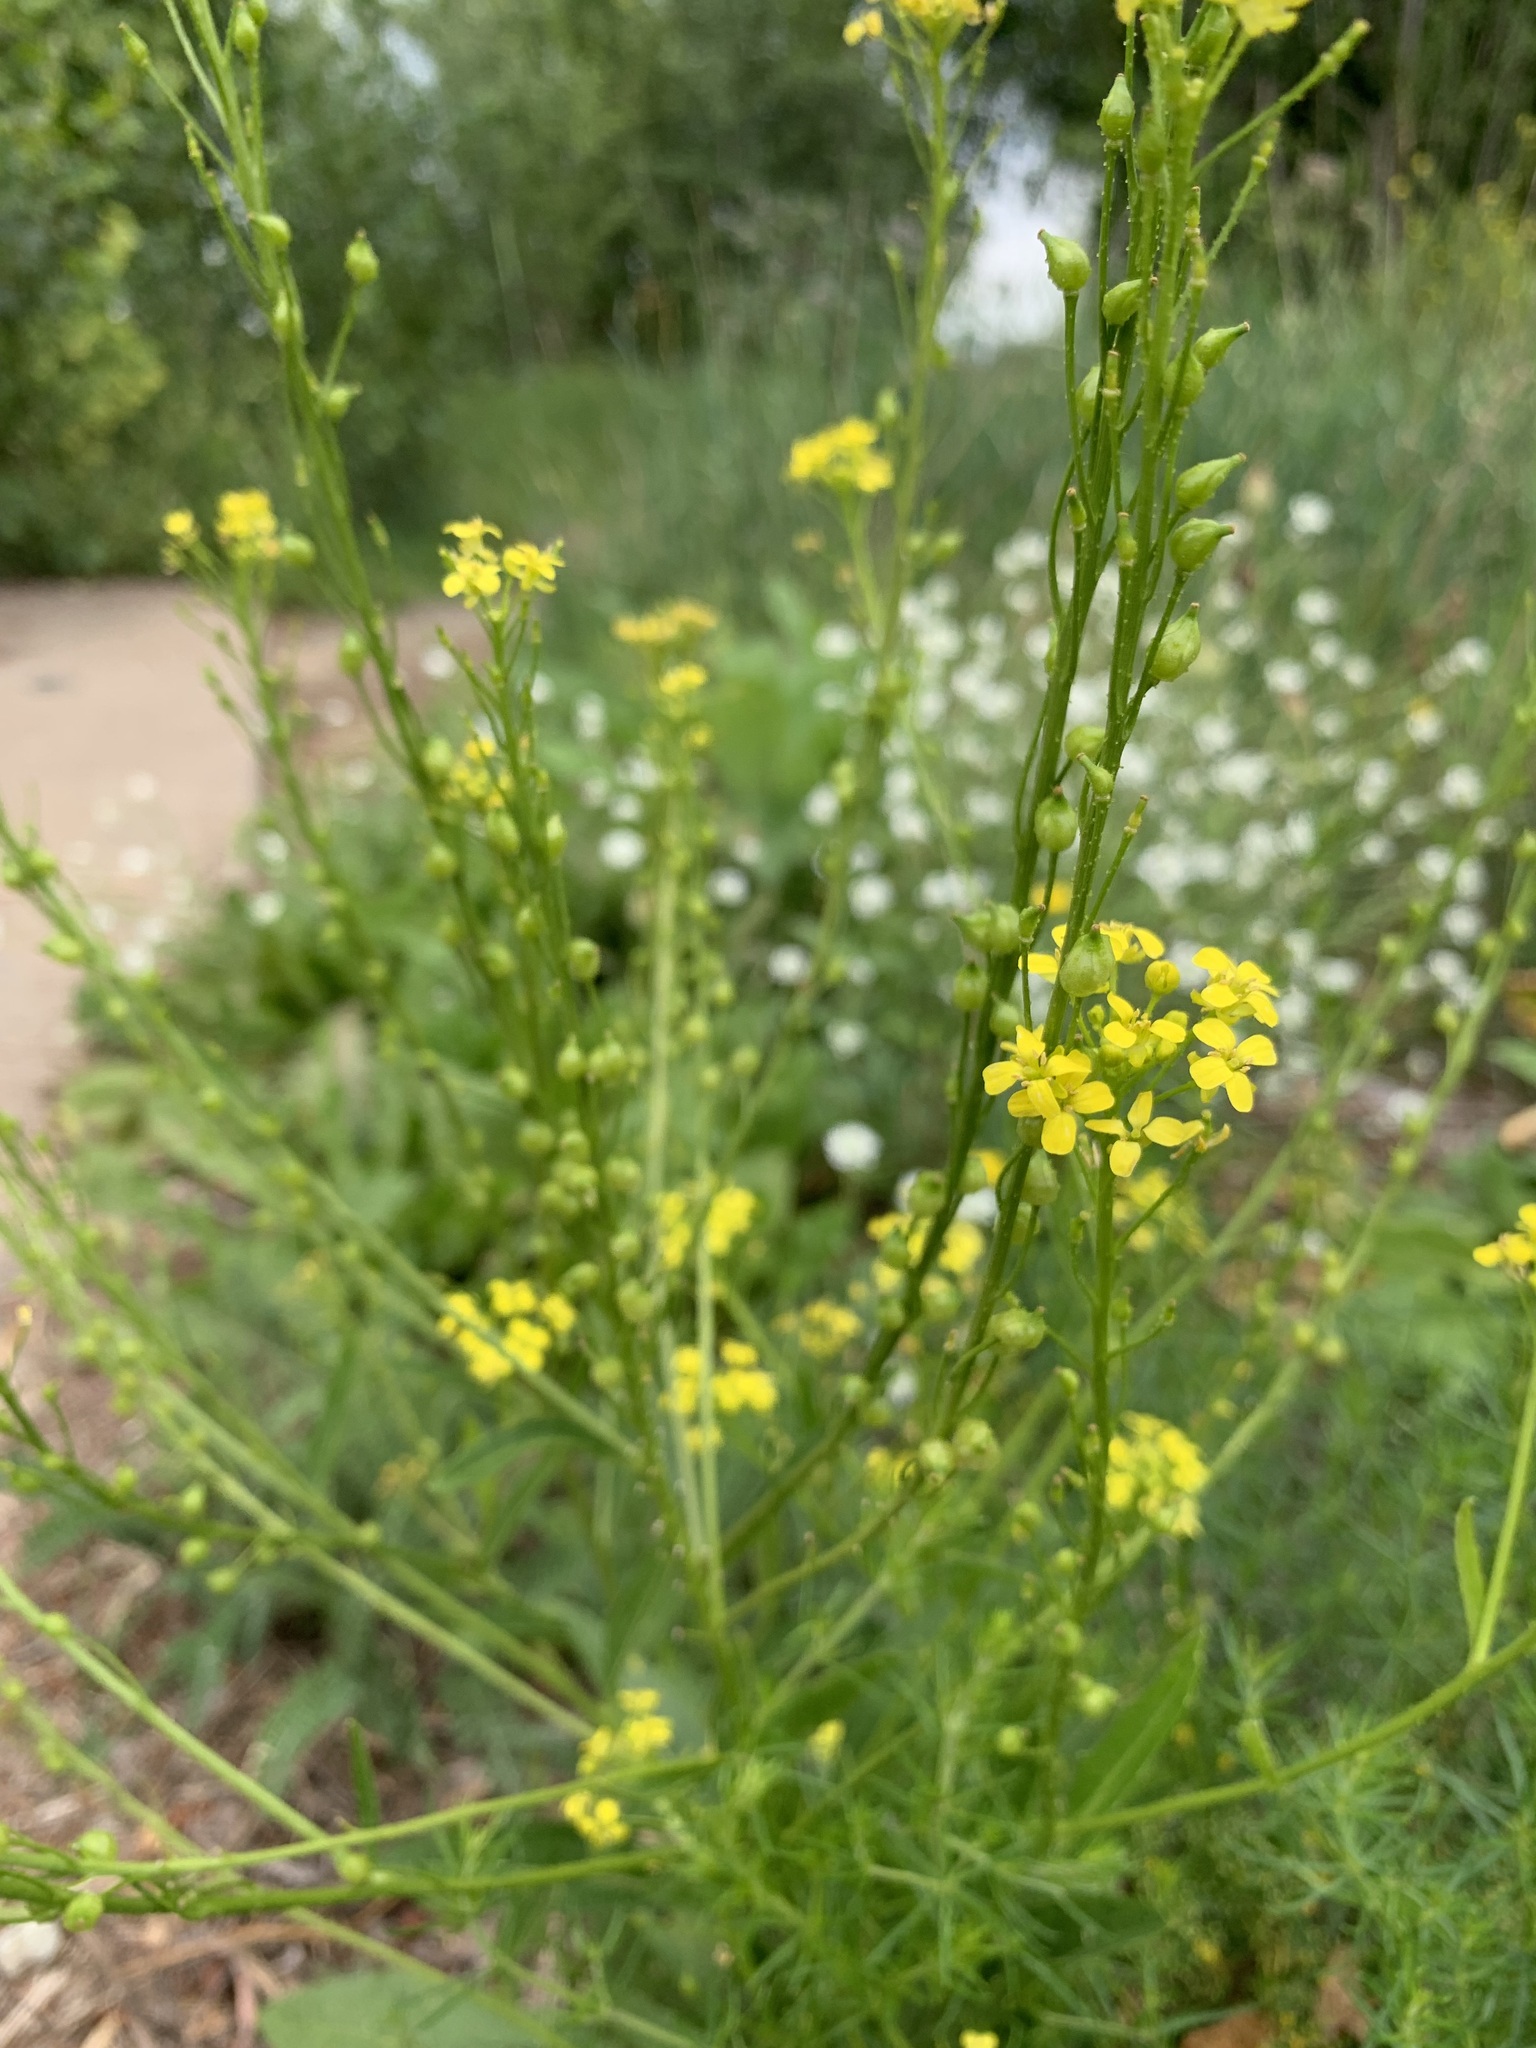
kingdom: Plantae
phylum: Tracheophyta
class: Magnoliopsida
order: Brassicales
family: Brassicaceae
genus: Bunias
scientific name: Bunias orientalis
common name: Warty-cabbage
